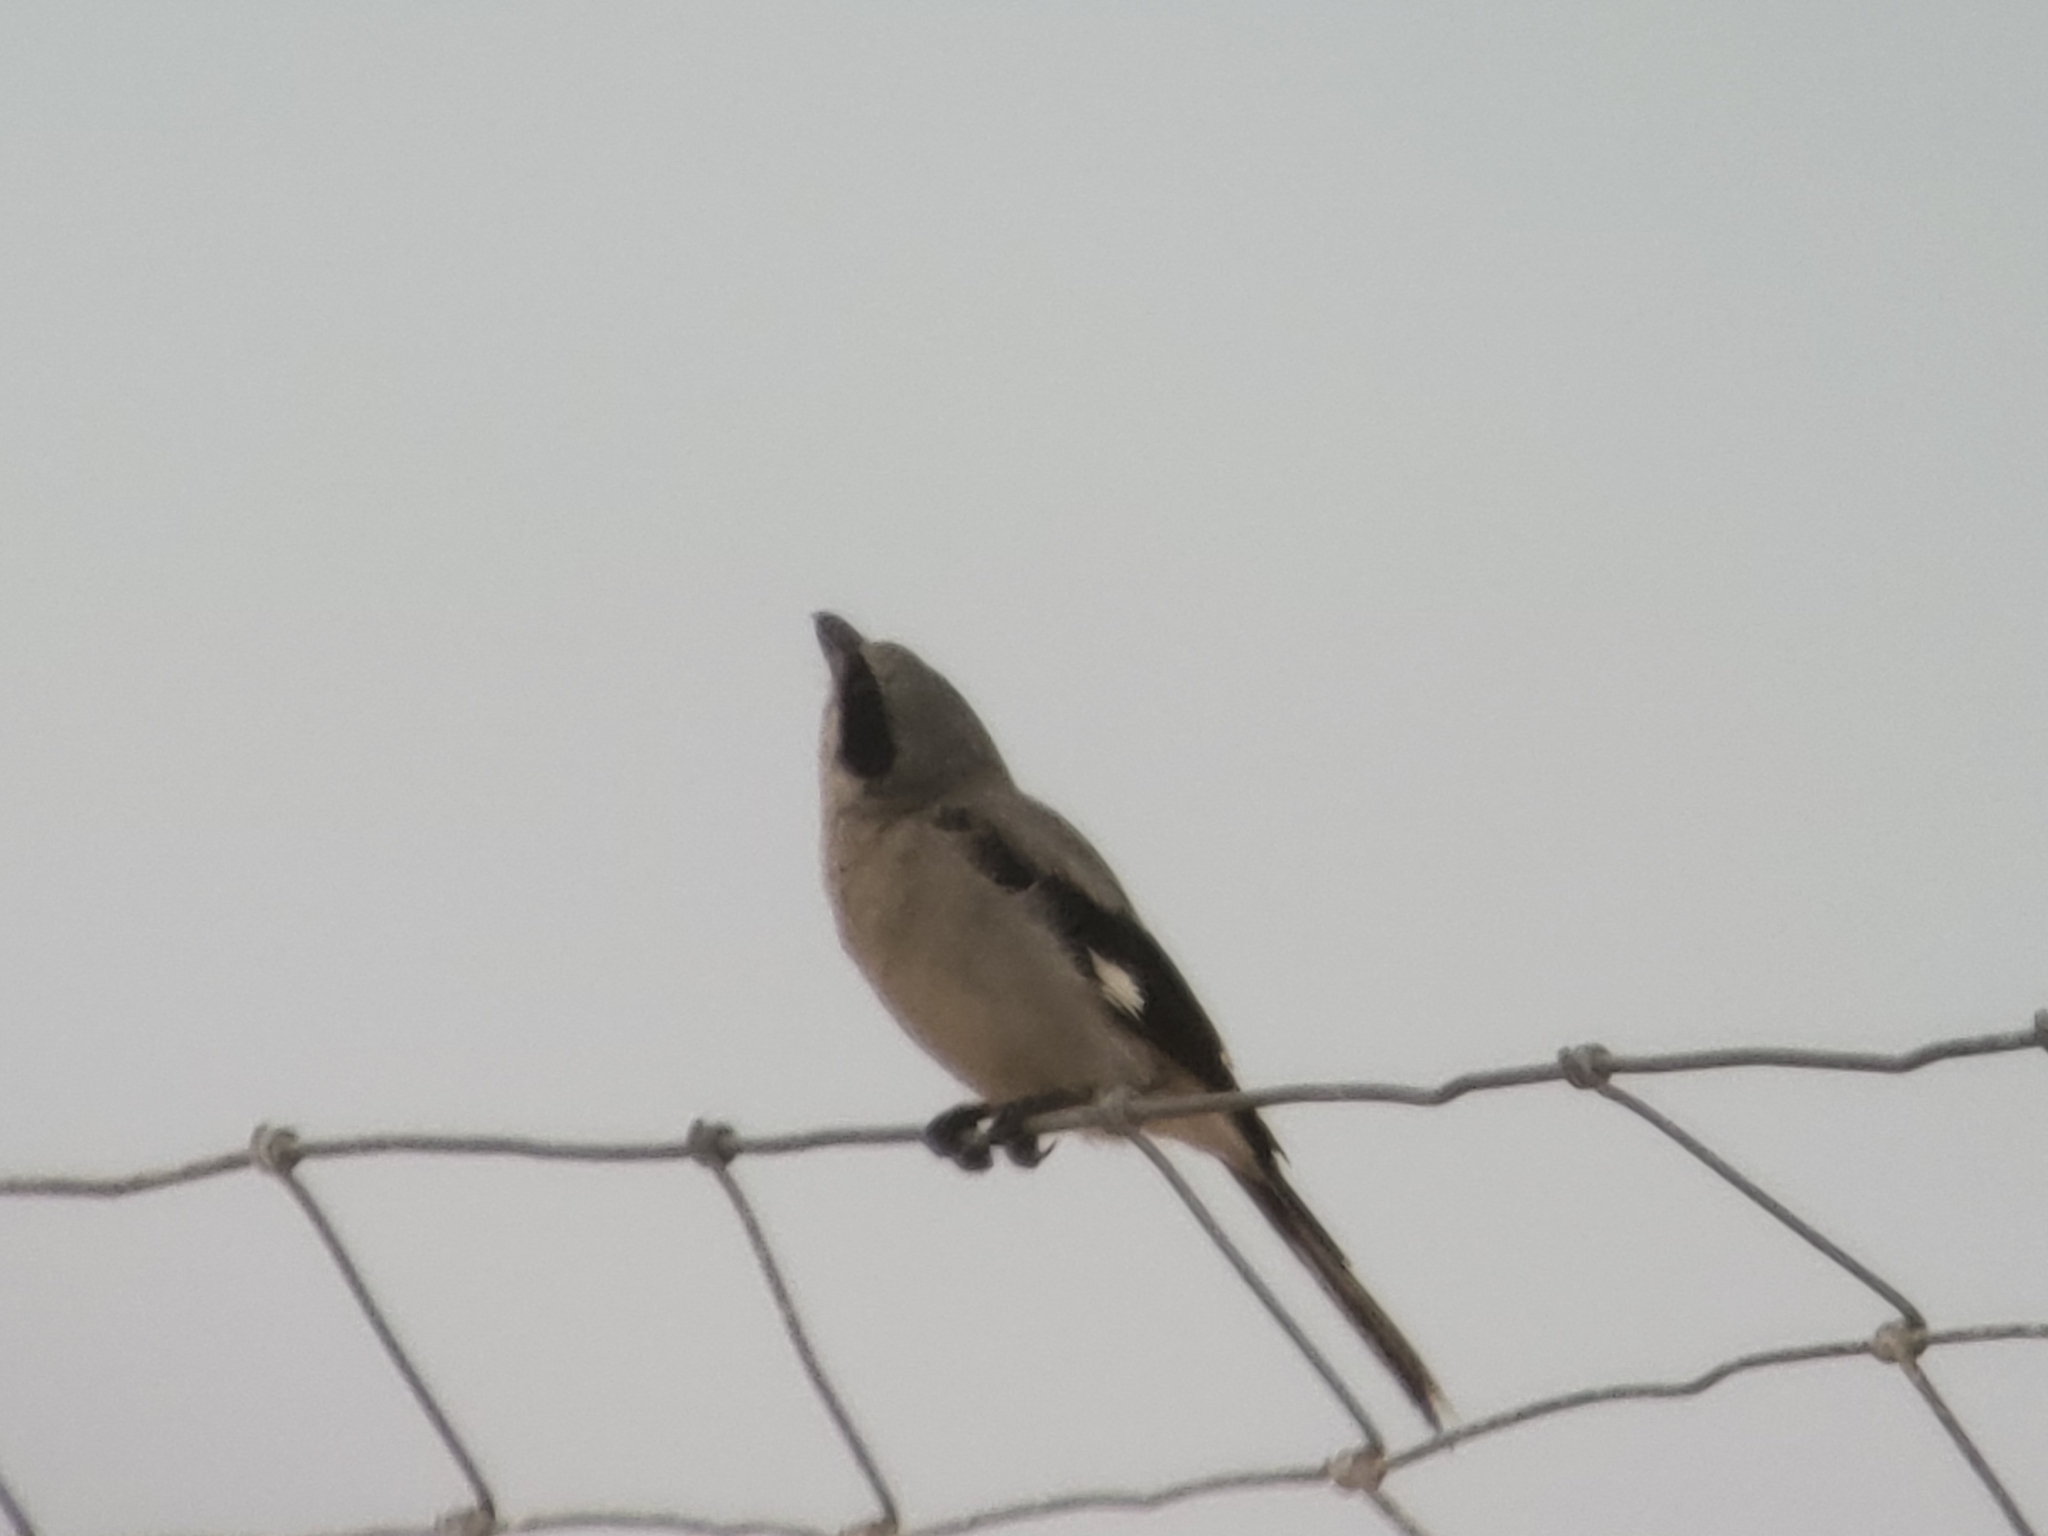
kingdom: Animalia
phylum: Chordata
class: Aves
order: Passeriformes
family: Laniidae
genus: Lanius
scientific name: Lanius ludovicianus
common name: Loggerhead shrike
